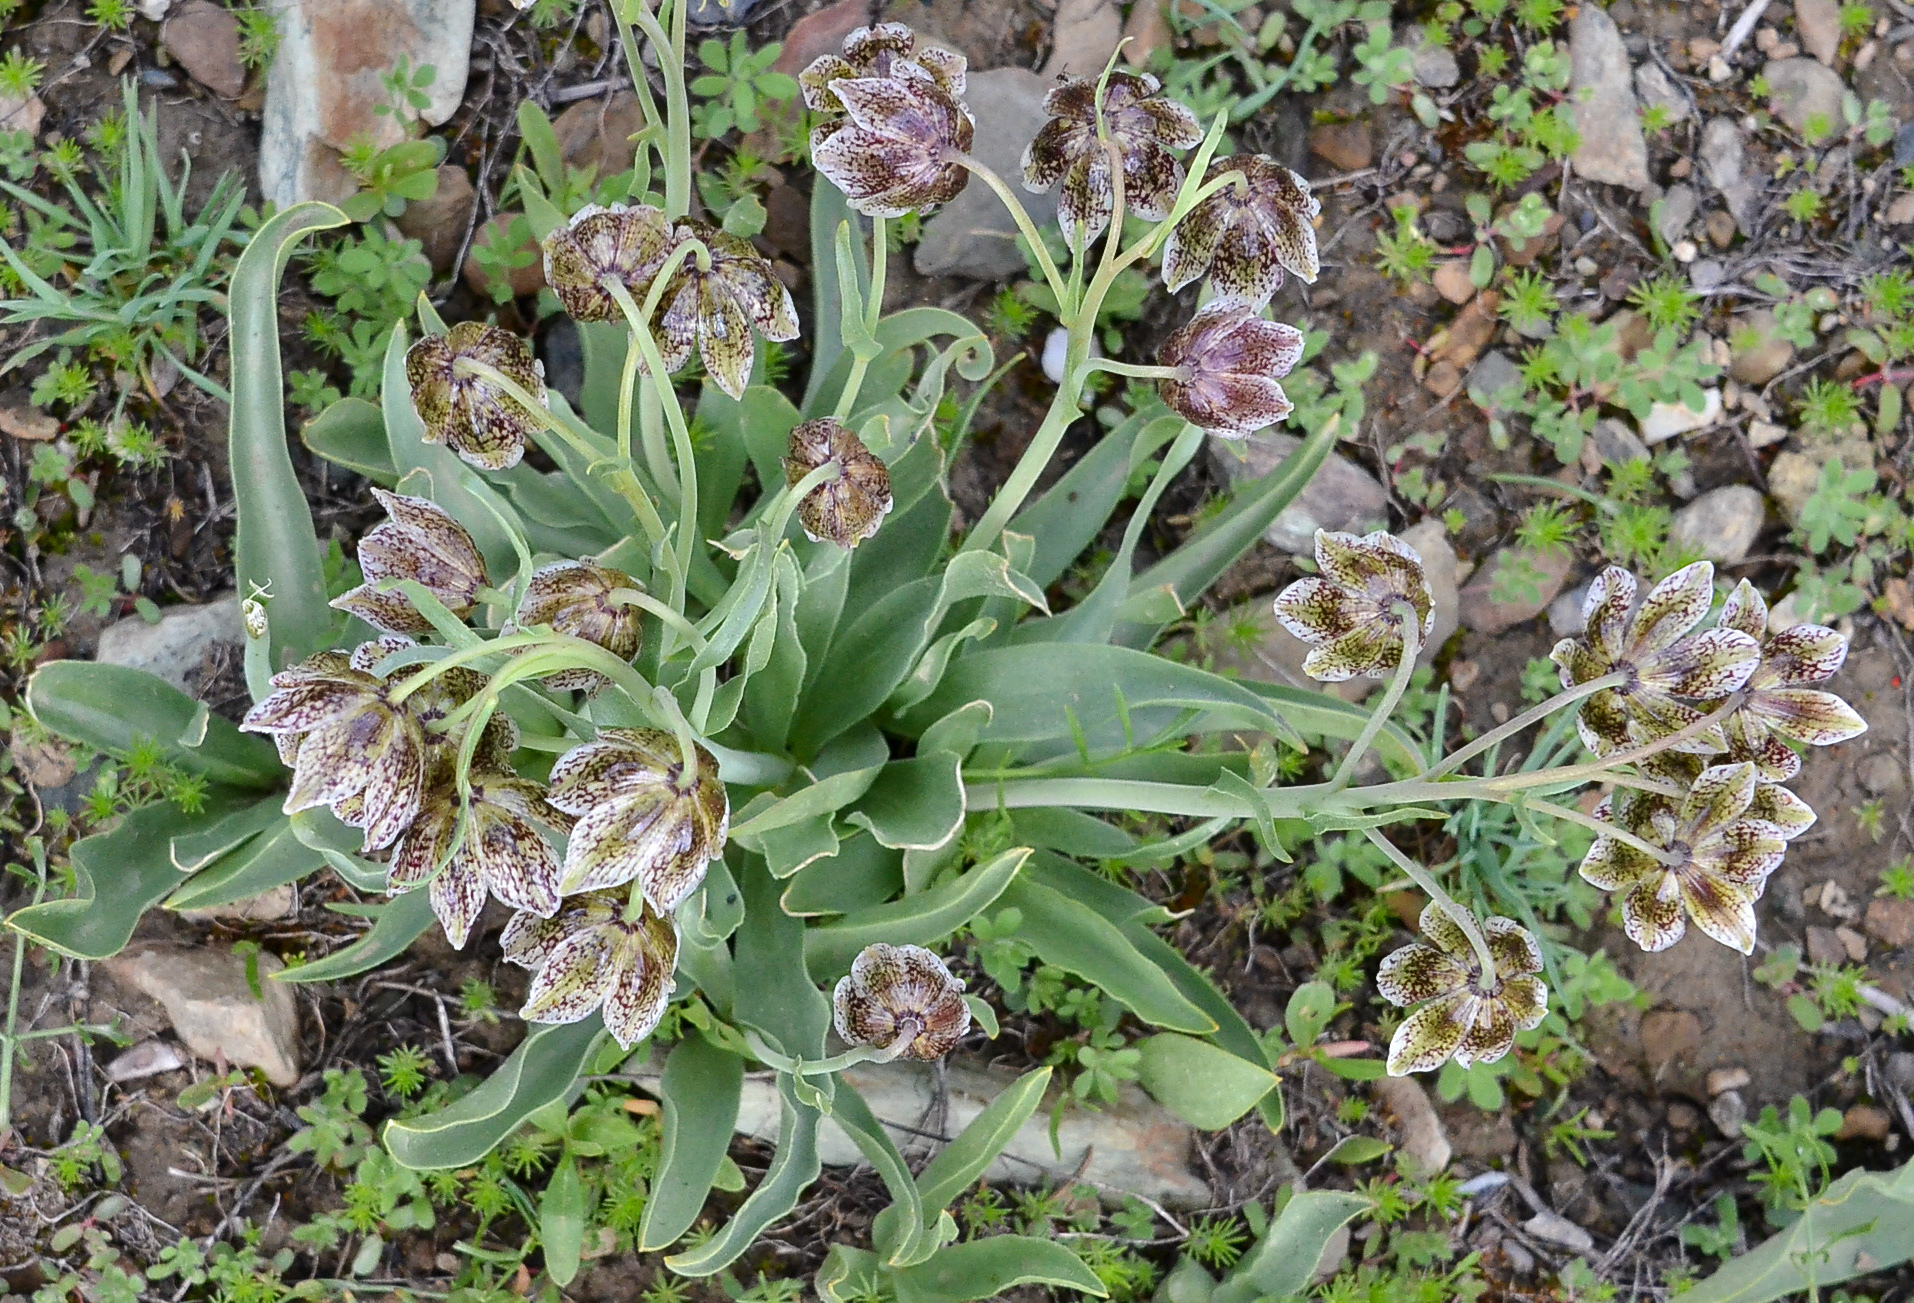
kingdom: Plantae
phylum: Tracheophyta
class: Liliopsida
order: Liliales
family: Liliaceae
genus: Fritillaria
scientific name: Fritillaria purdyi
